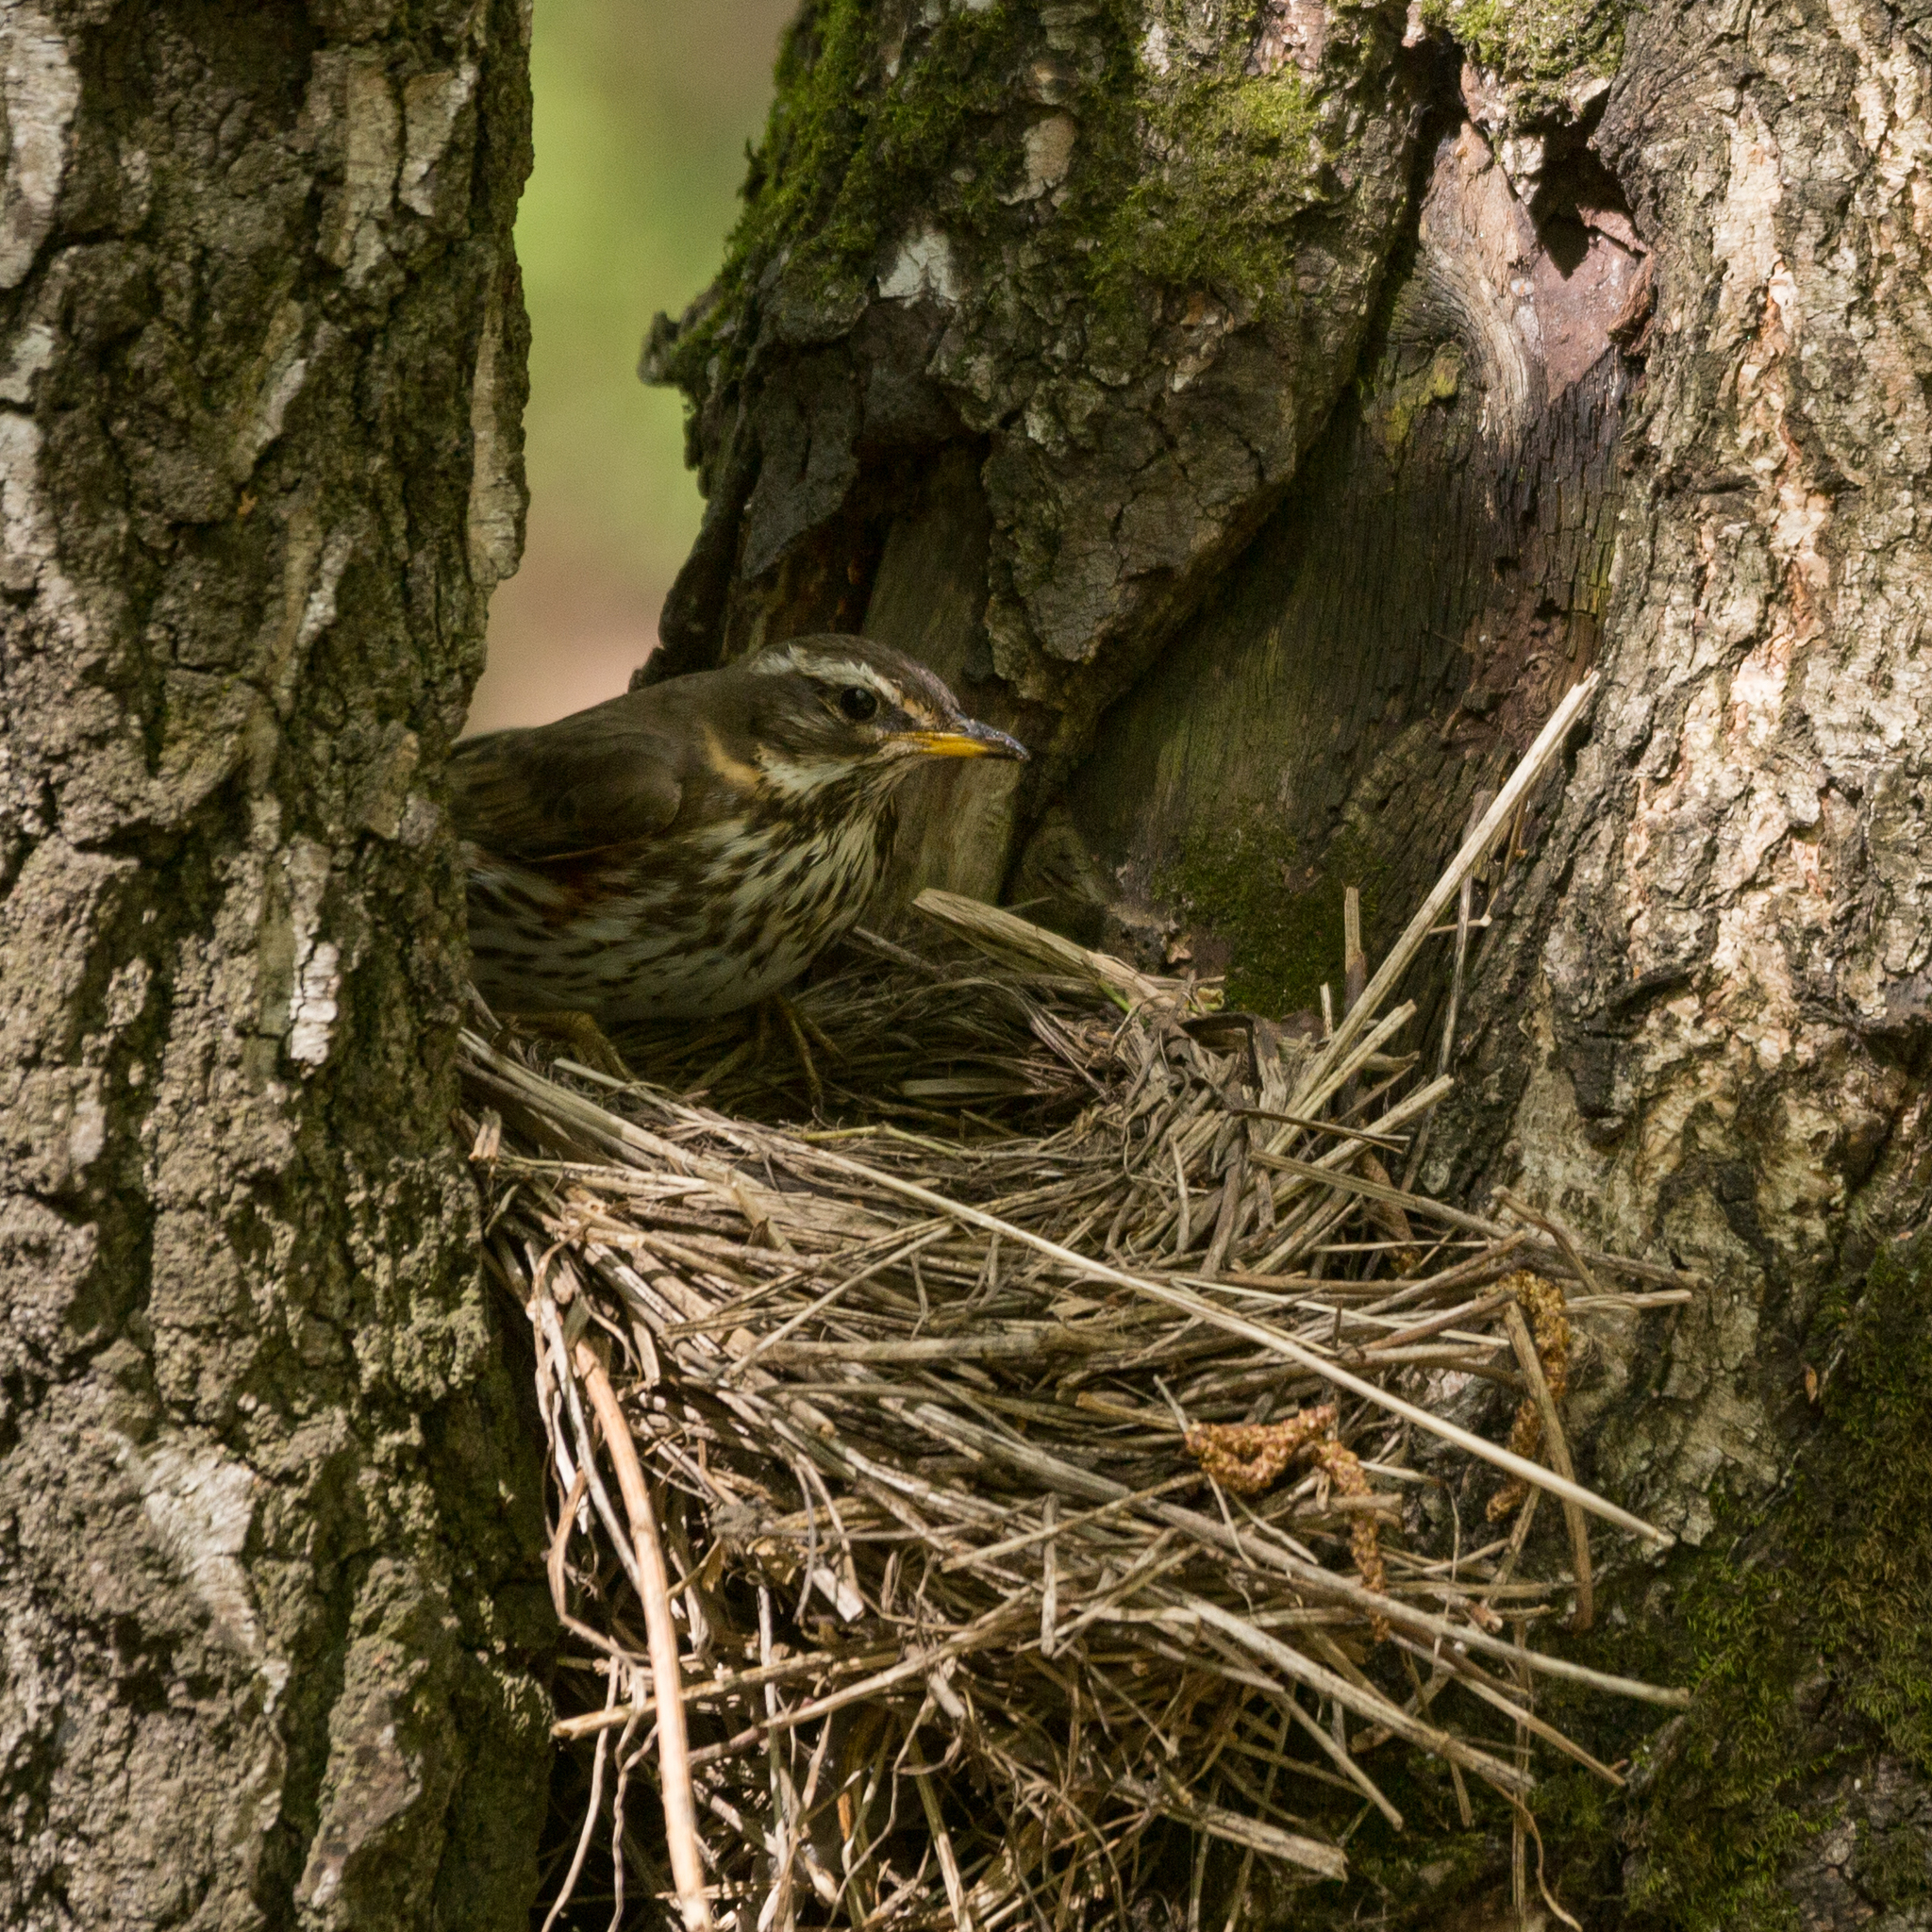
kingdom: Animalia
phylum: Chordata
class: Aves
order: Passeriformes
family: Turdidae
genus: Turdus
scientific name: Turdus iliacus
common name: Redwing
